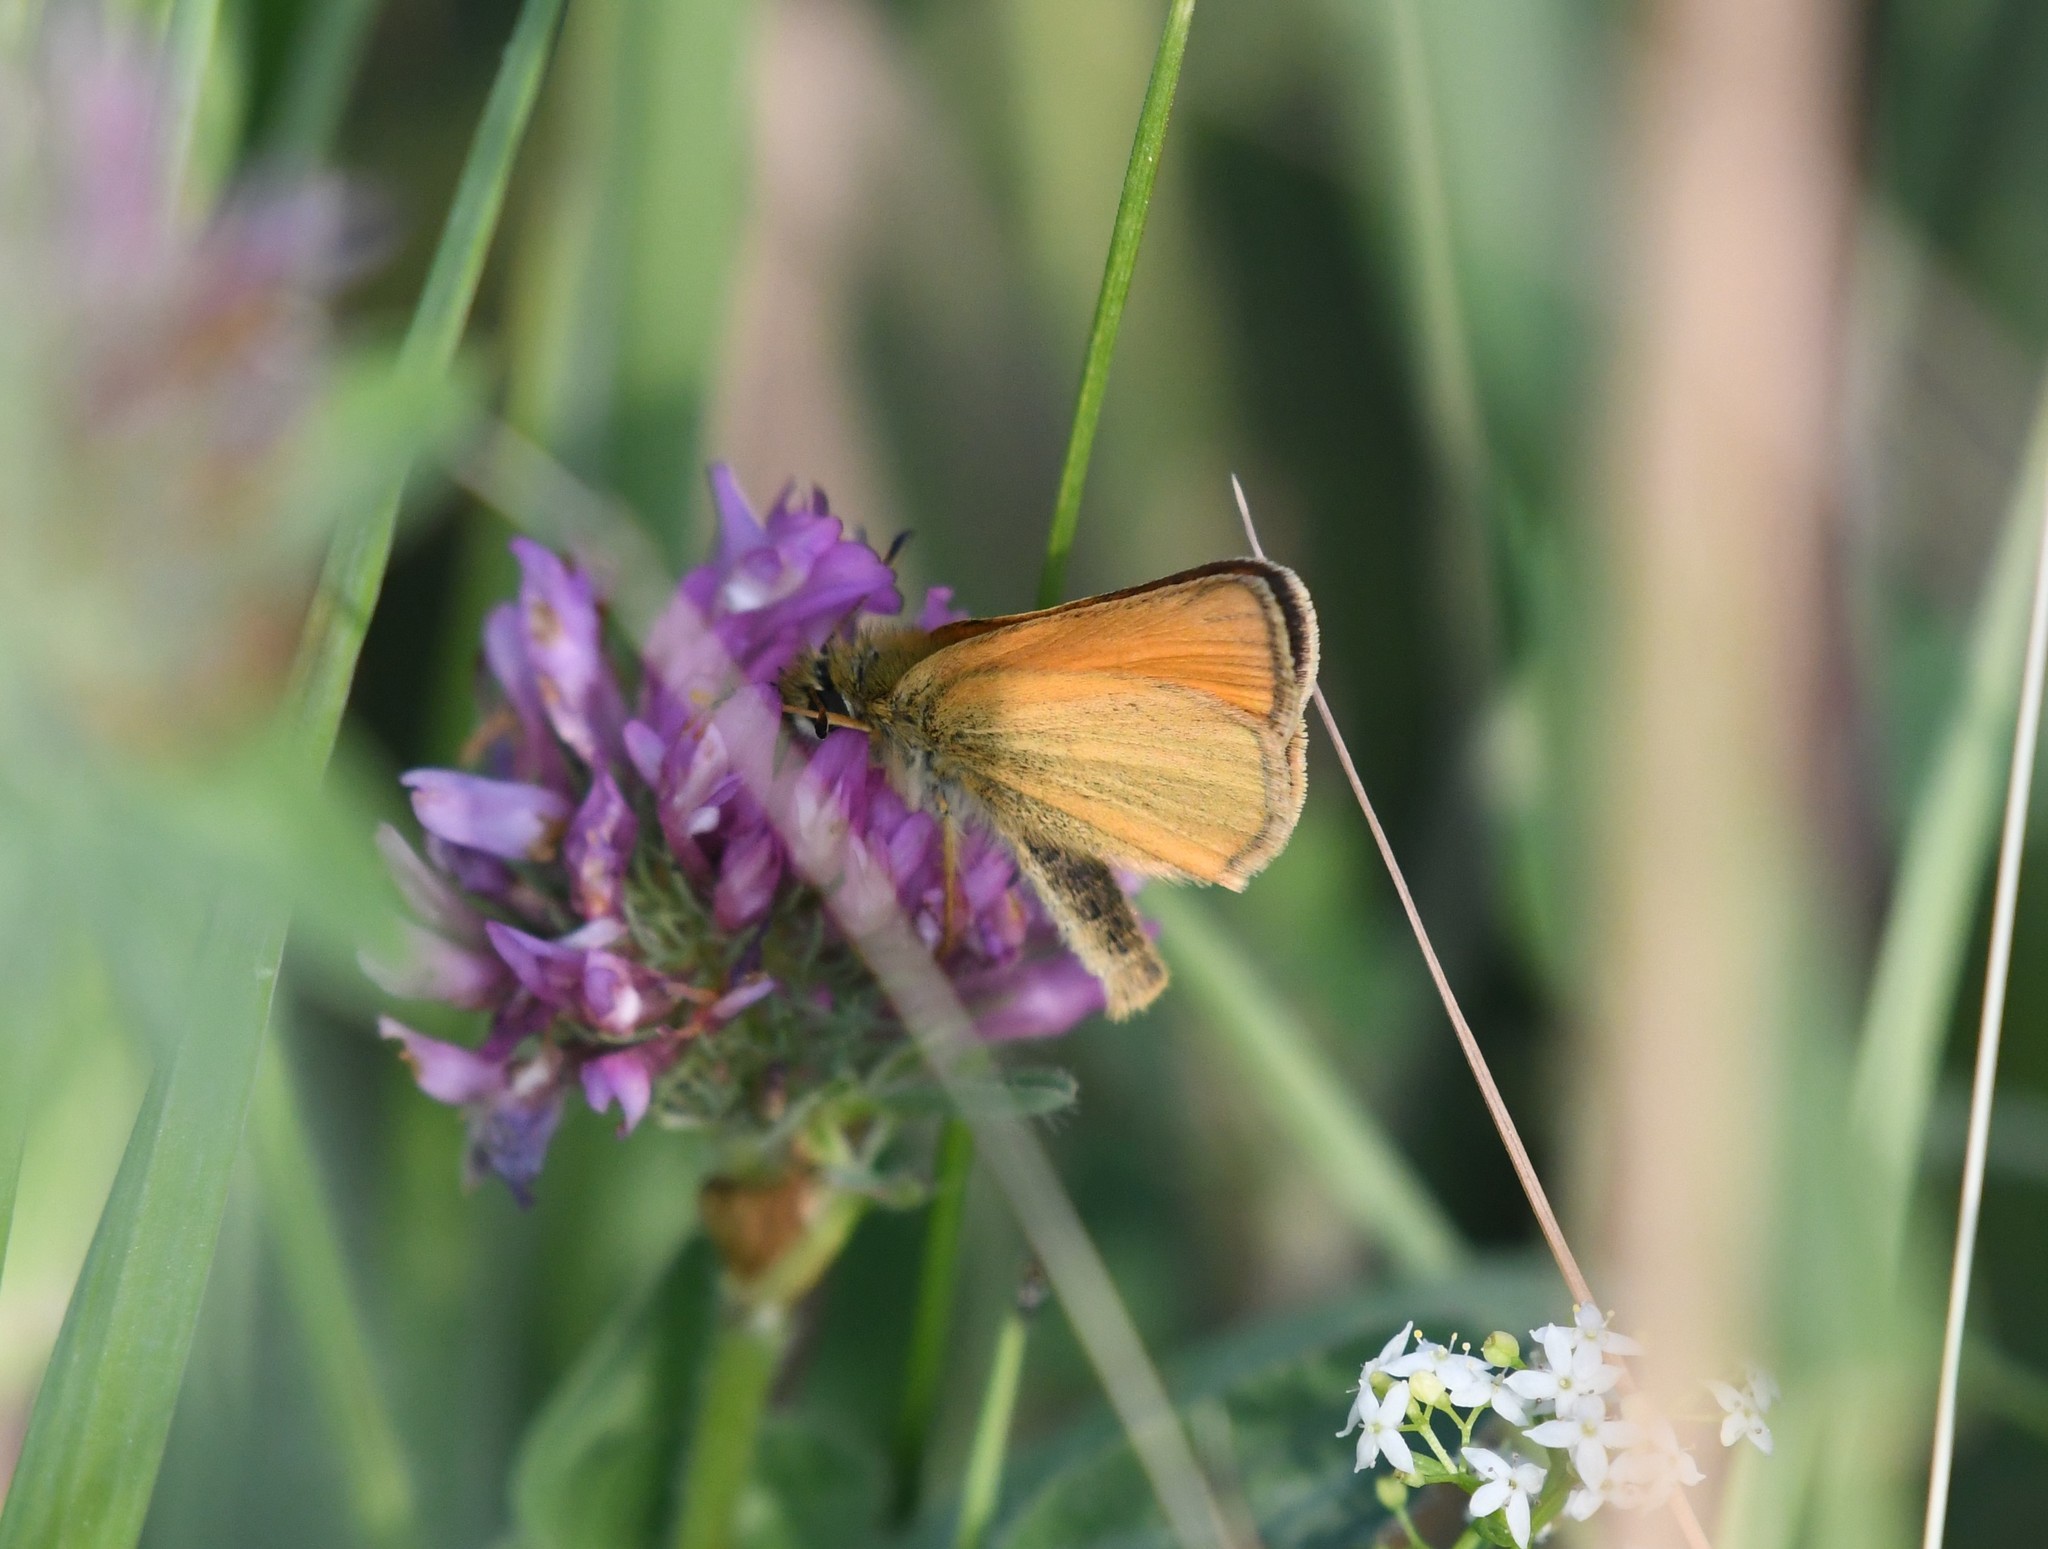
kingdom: Animalia
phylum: Arthropoda
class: Insecta
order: Lepidoptera
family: Hesperiidae
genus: Thymelicus
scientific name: Thymelicus lineola
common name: Essex skipper
